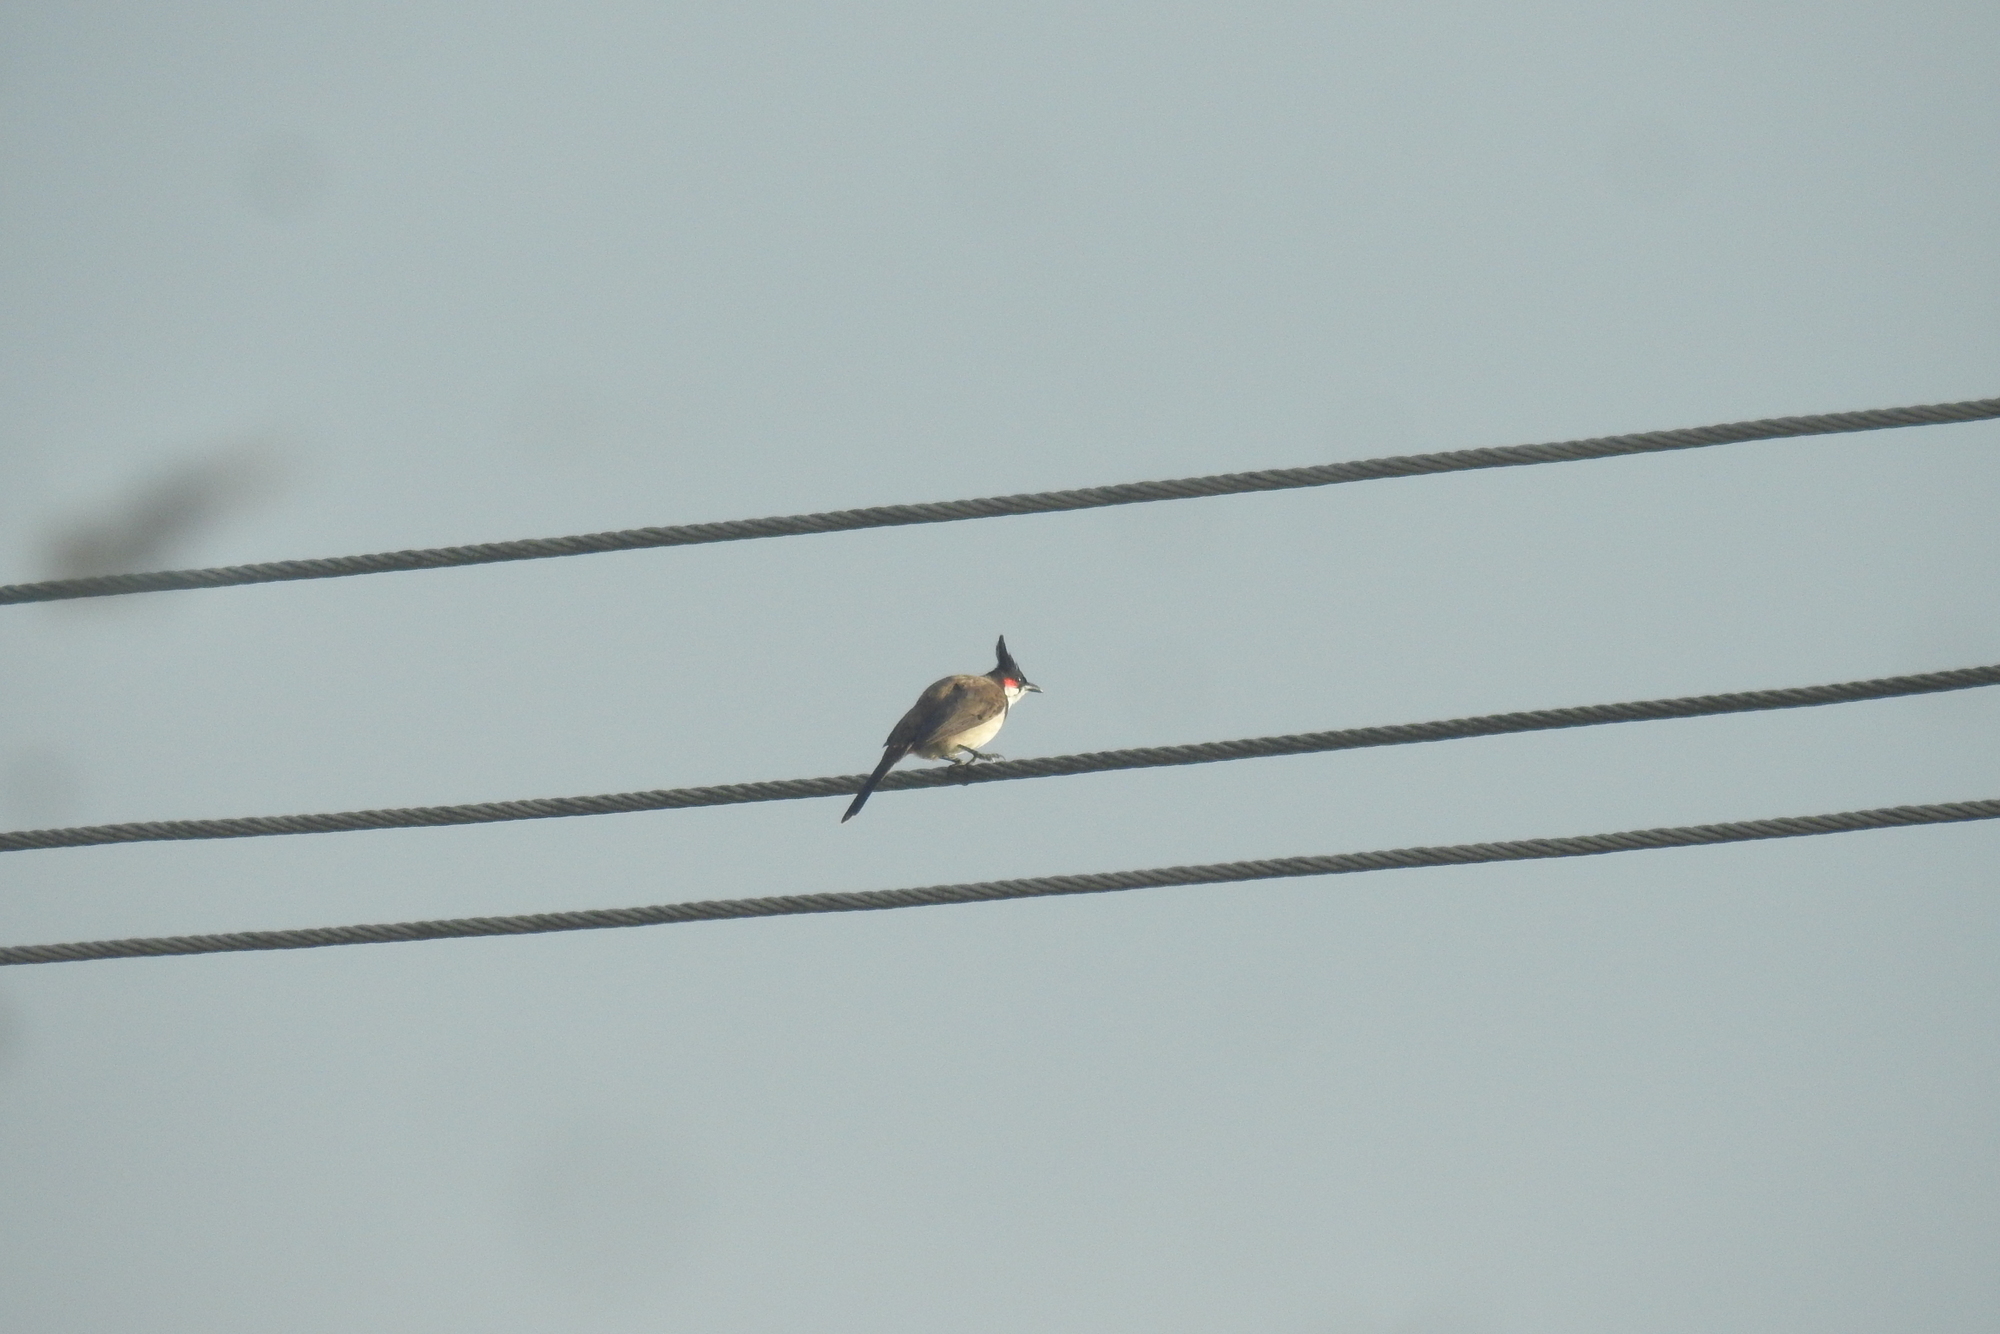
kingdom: Animalia
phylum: Chordata
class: Aves
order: Passeriformes
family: Pycnonotidae
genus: Pycnonotus
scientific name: Pycnonotus jocosus
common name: Red-whiskered bulbul
